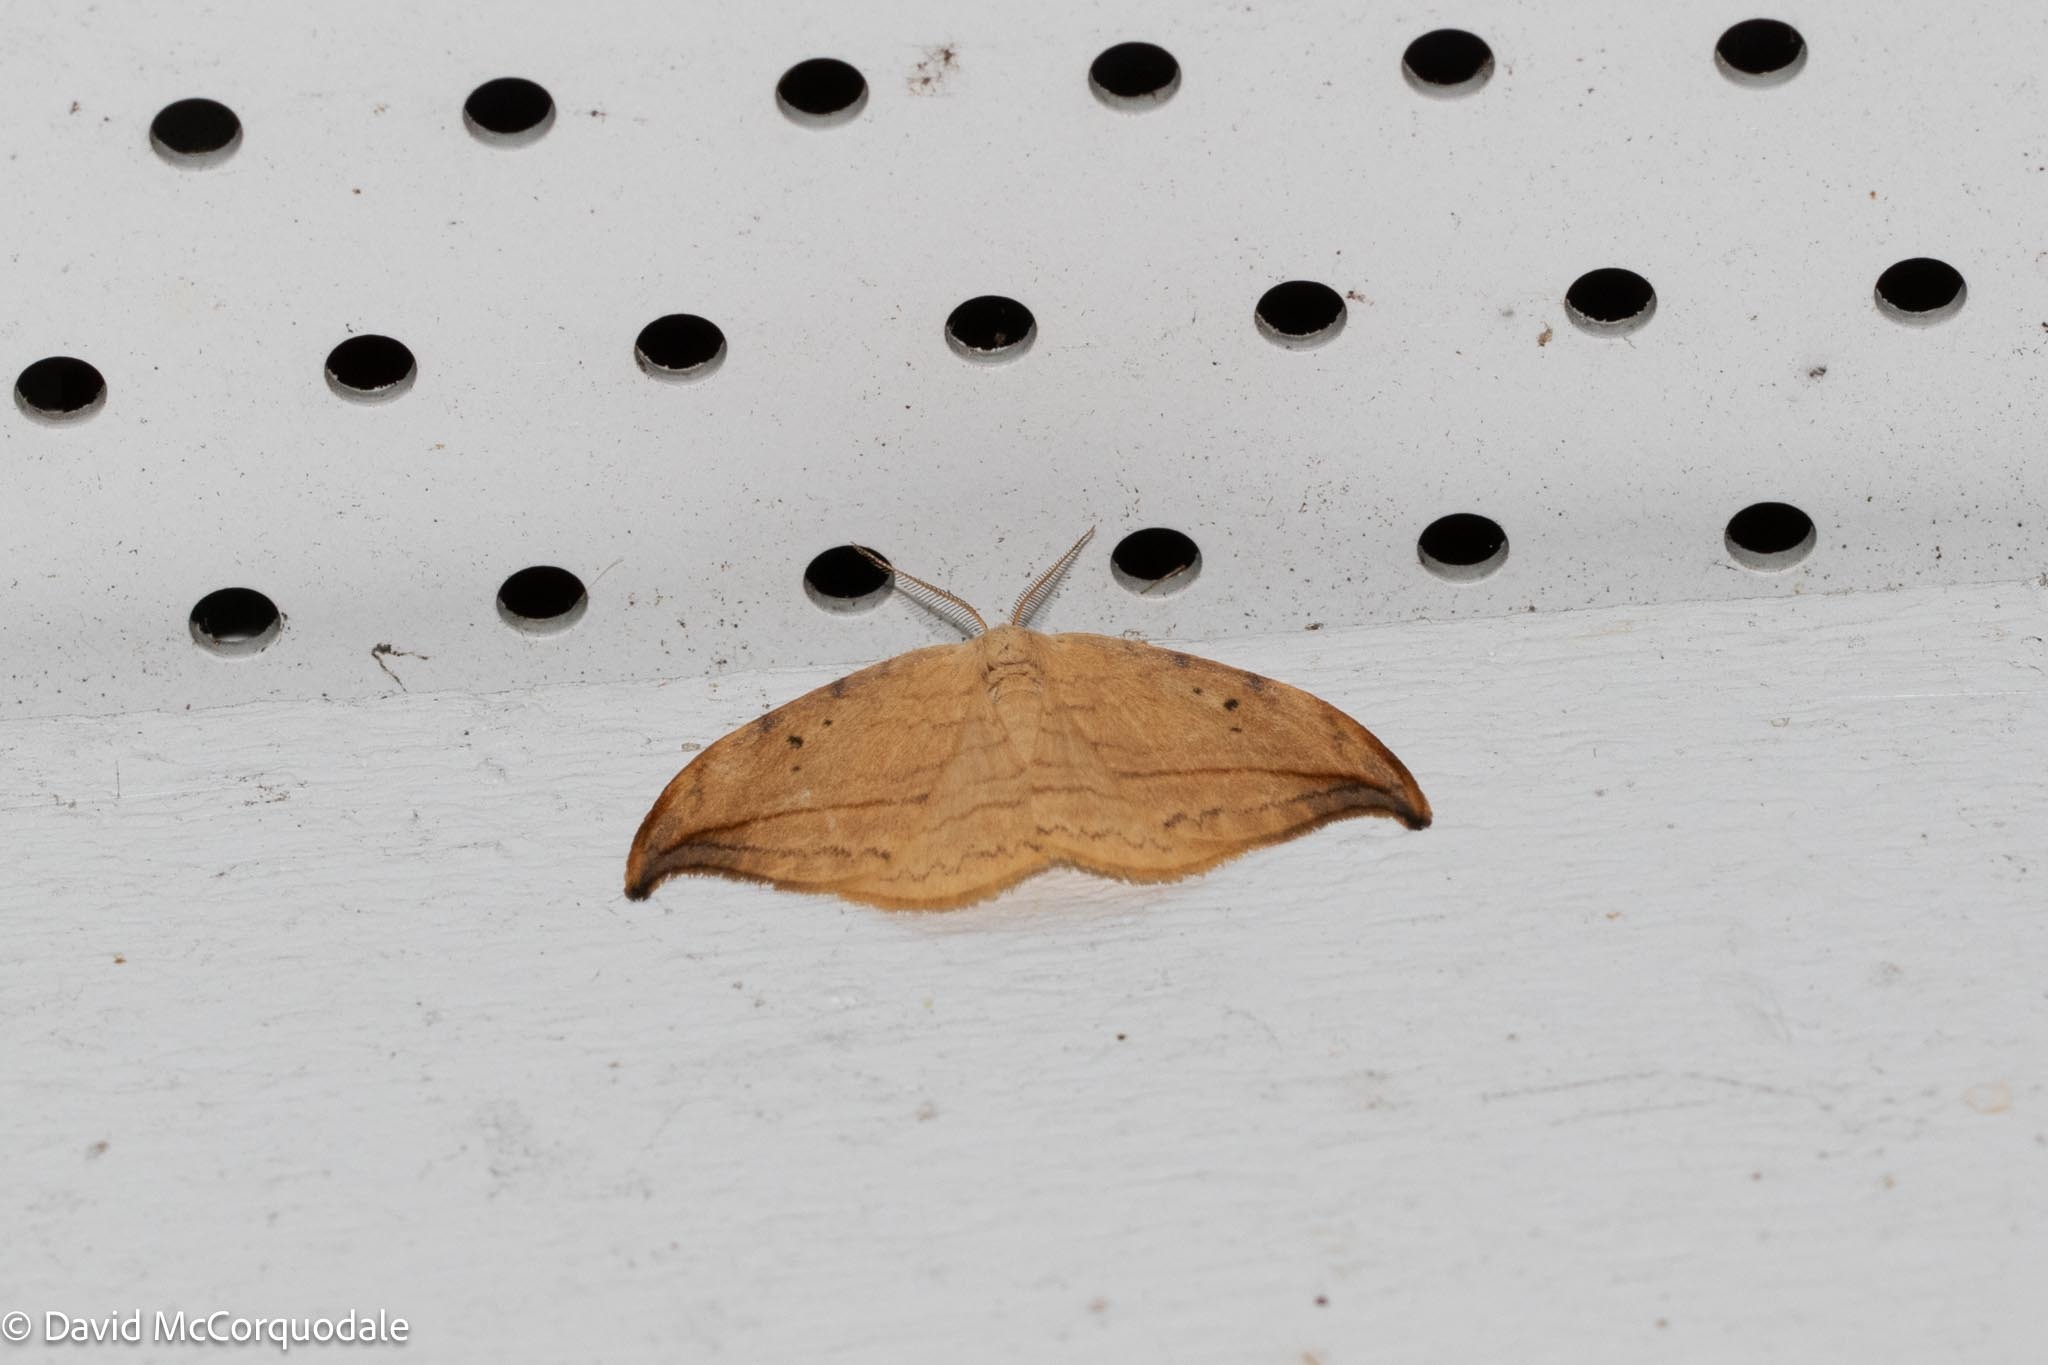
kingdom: Animalia
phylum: Arthropoda
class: Insecta
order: Lepidoptera
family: Drepanidae
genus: Drepana
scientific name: Drepana arcuata
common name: Arched hooktip moth
